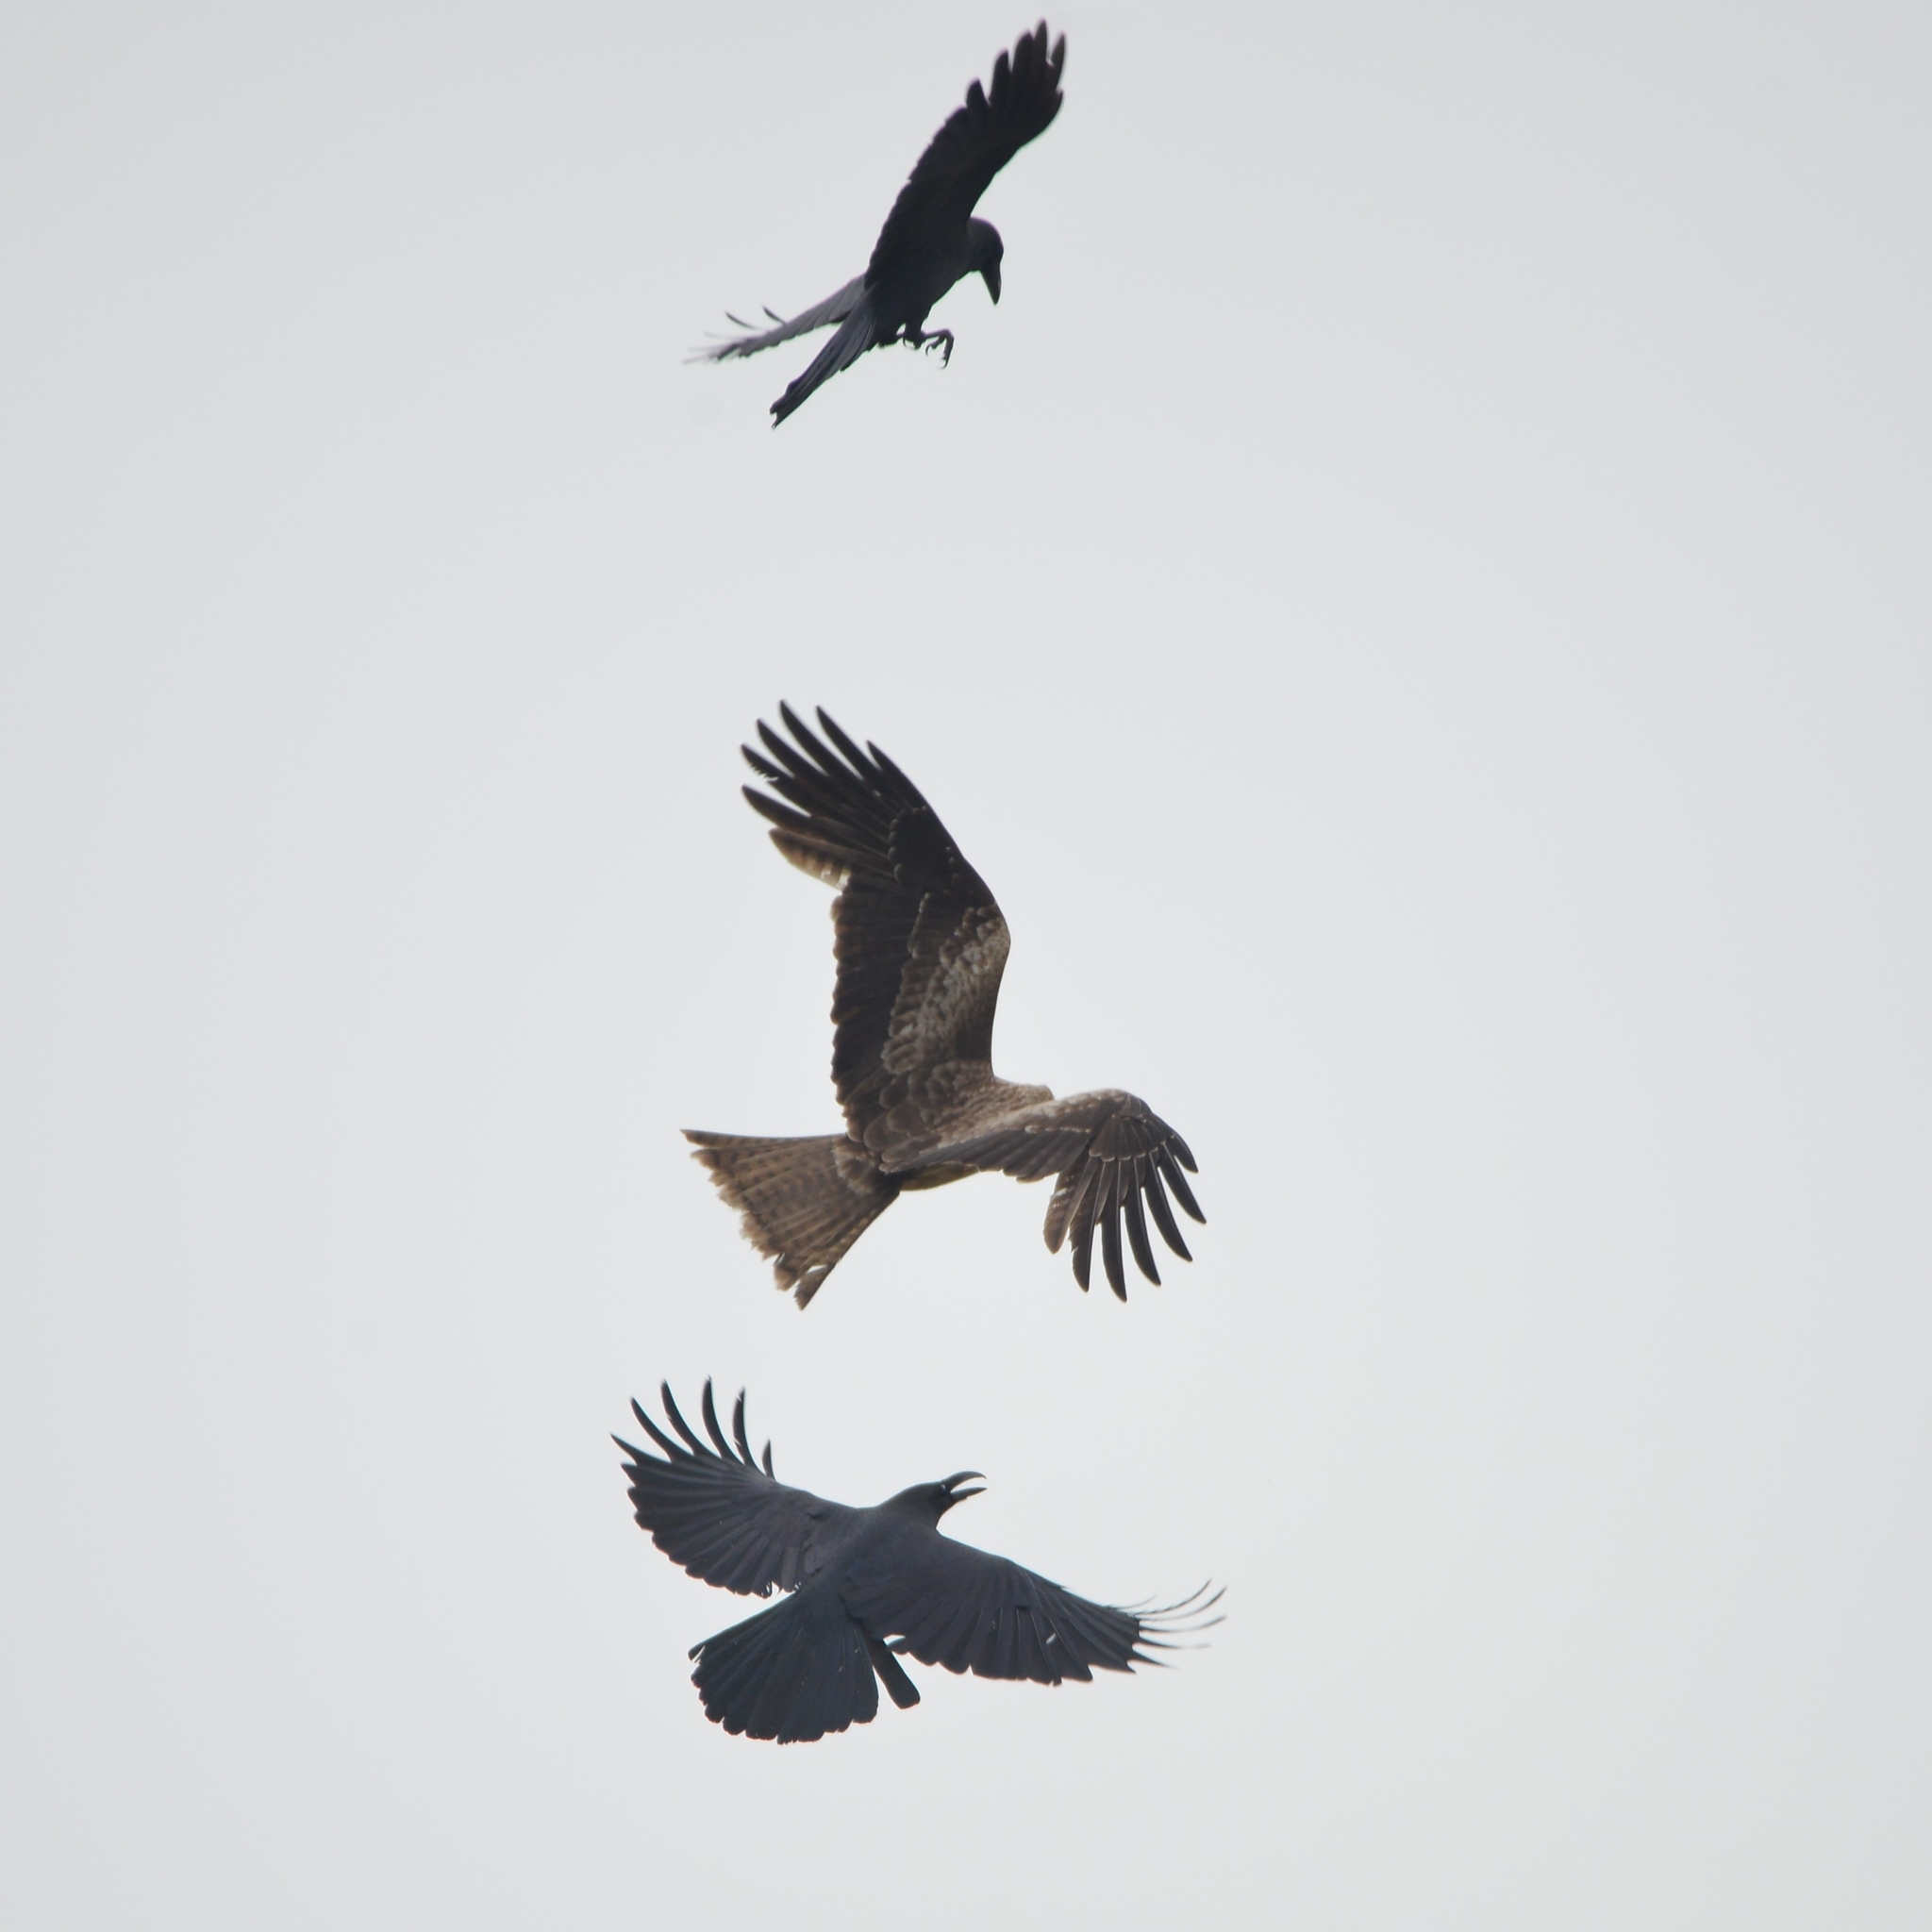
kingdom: Animalia
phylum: Chordata
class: Aves
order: Accipitriformes
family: Accipitridae
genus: Milvus
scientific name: Milvus migrans
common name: Black kite
